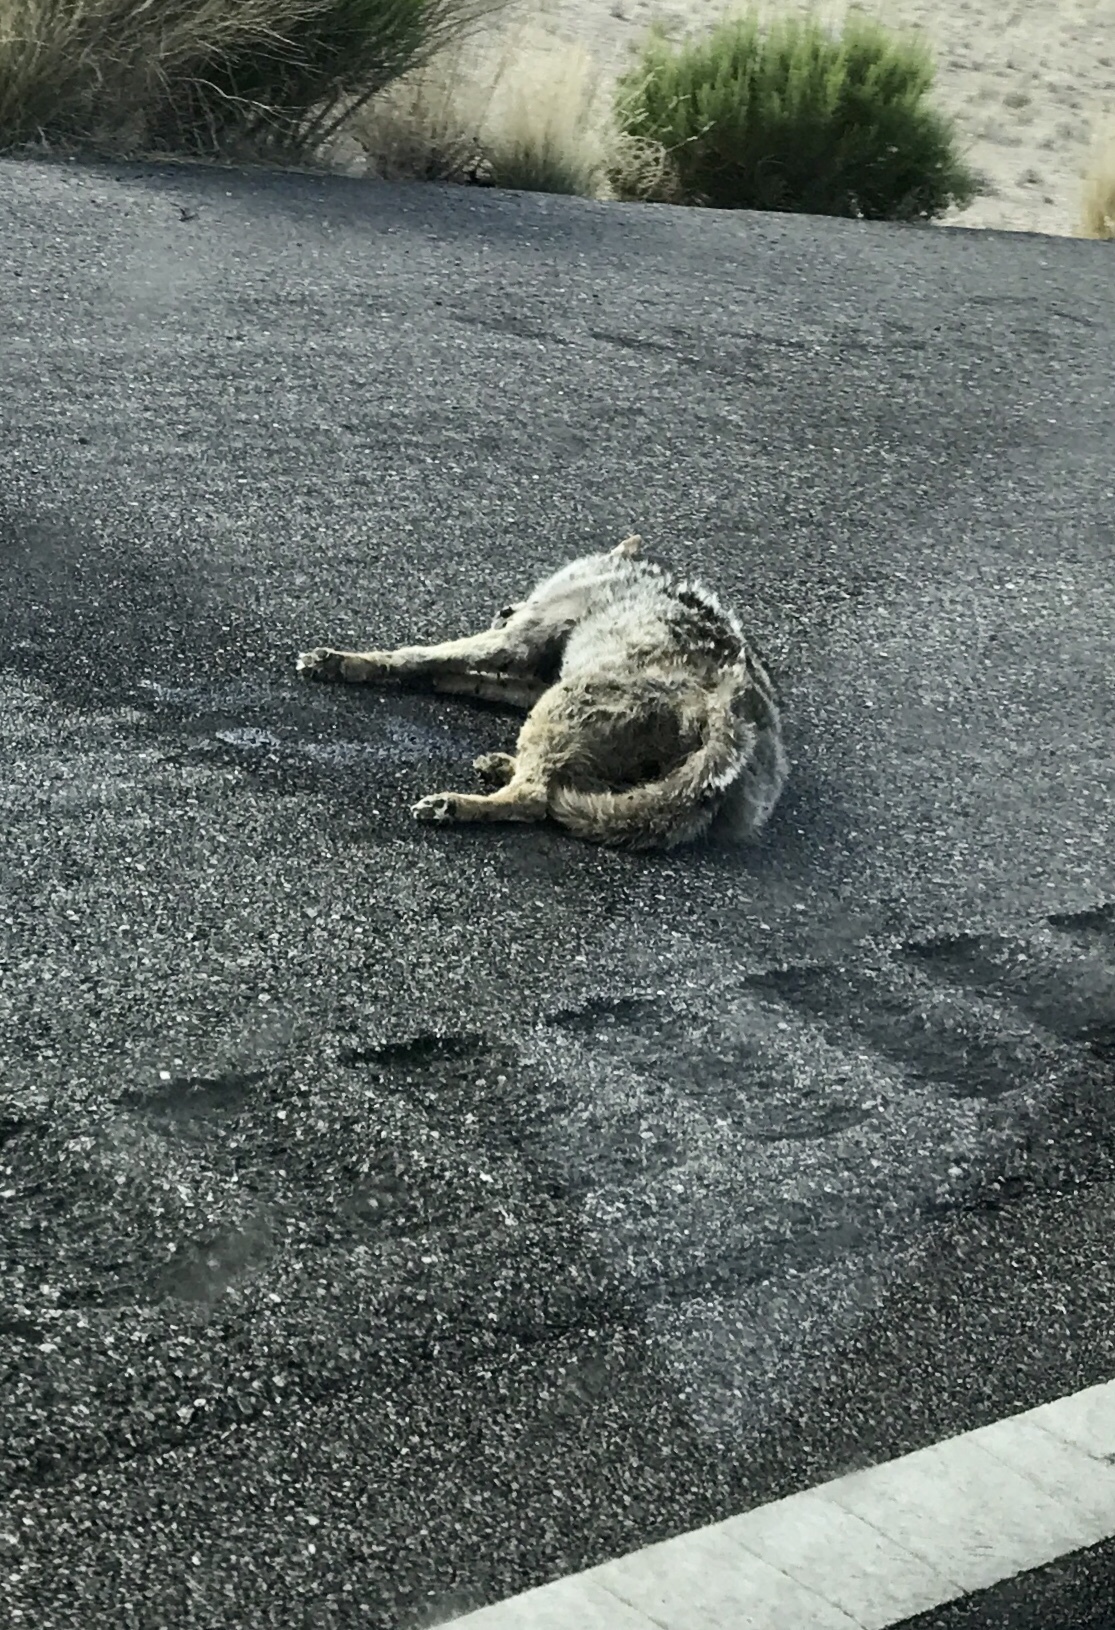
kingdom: Animalia
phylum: Chordata
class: Mammalia
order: Carnivora
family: Canidae
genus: Canis
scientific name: Canis latrans
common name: Coyote
